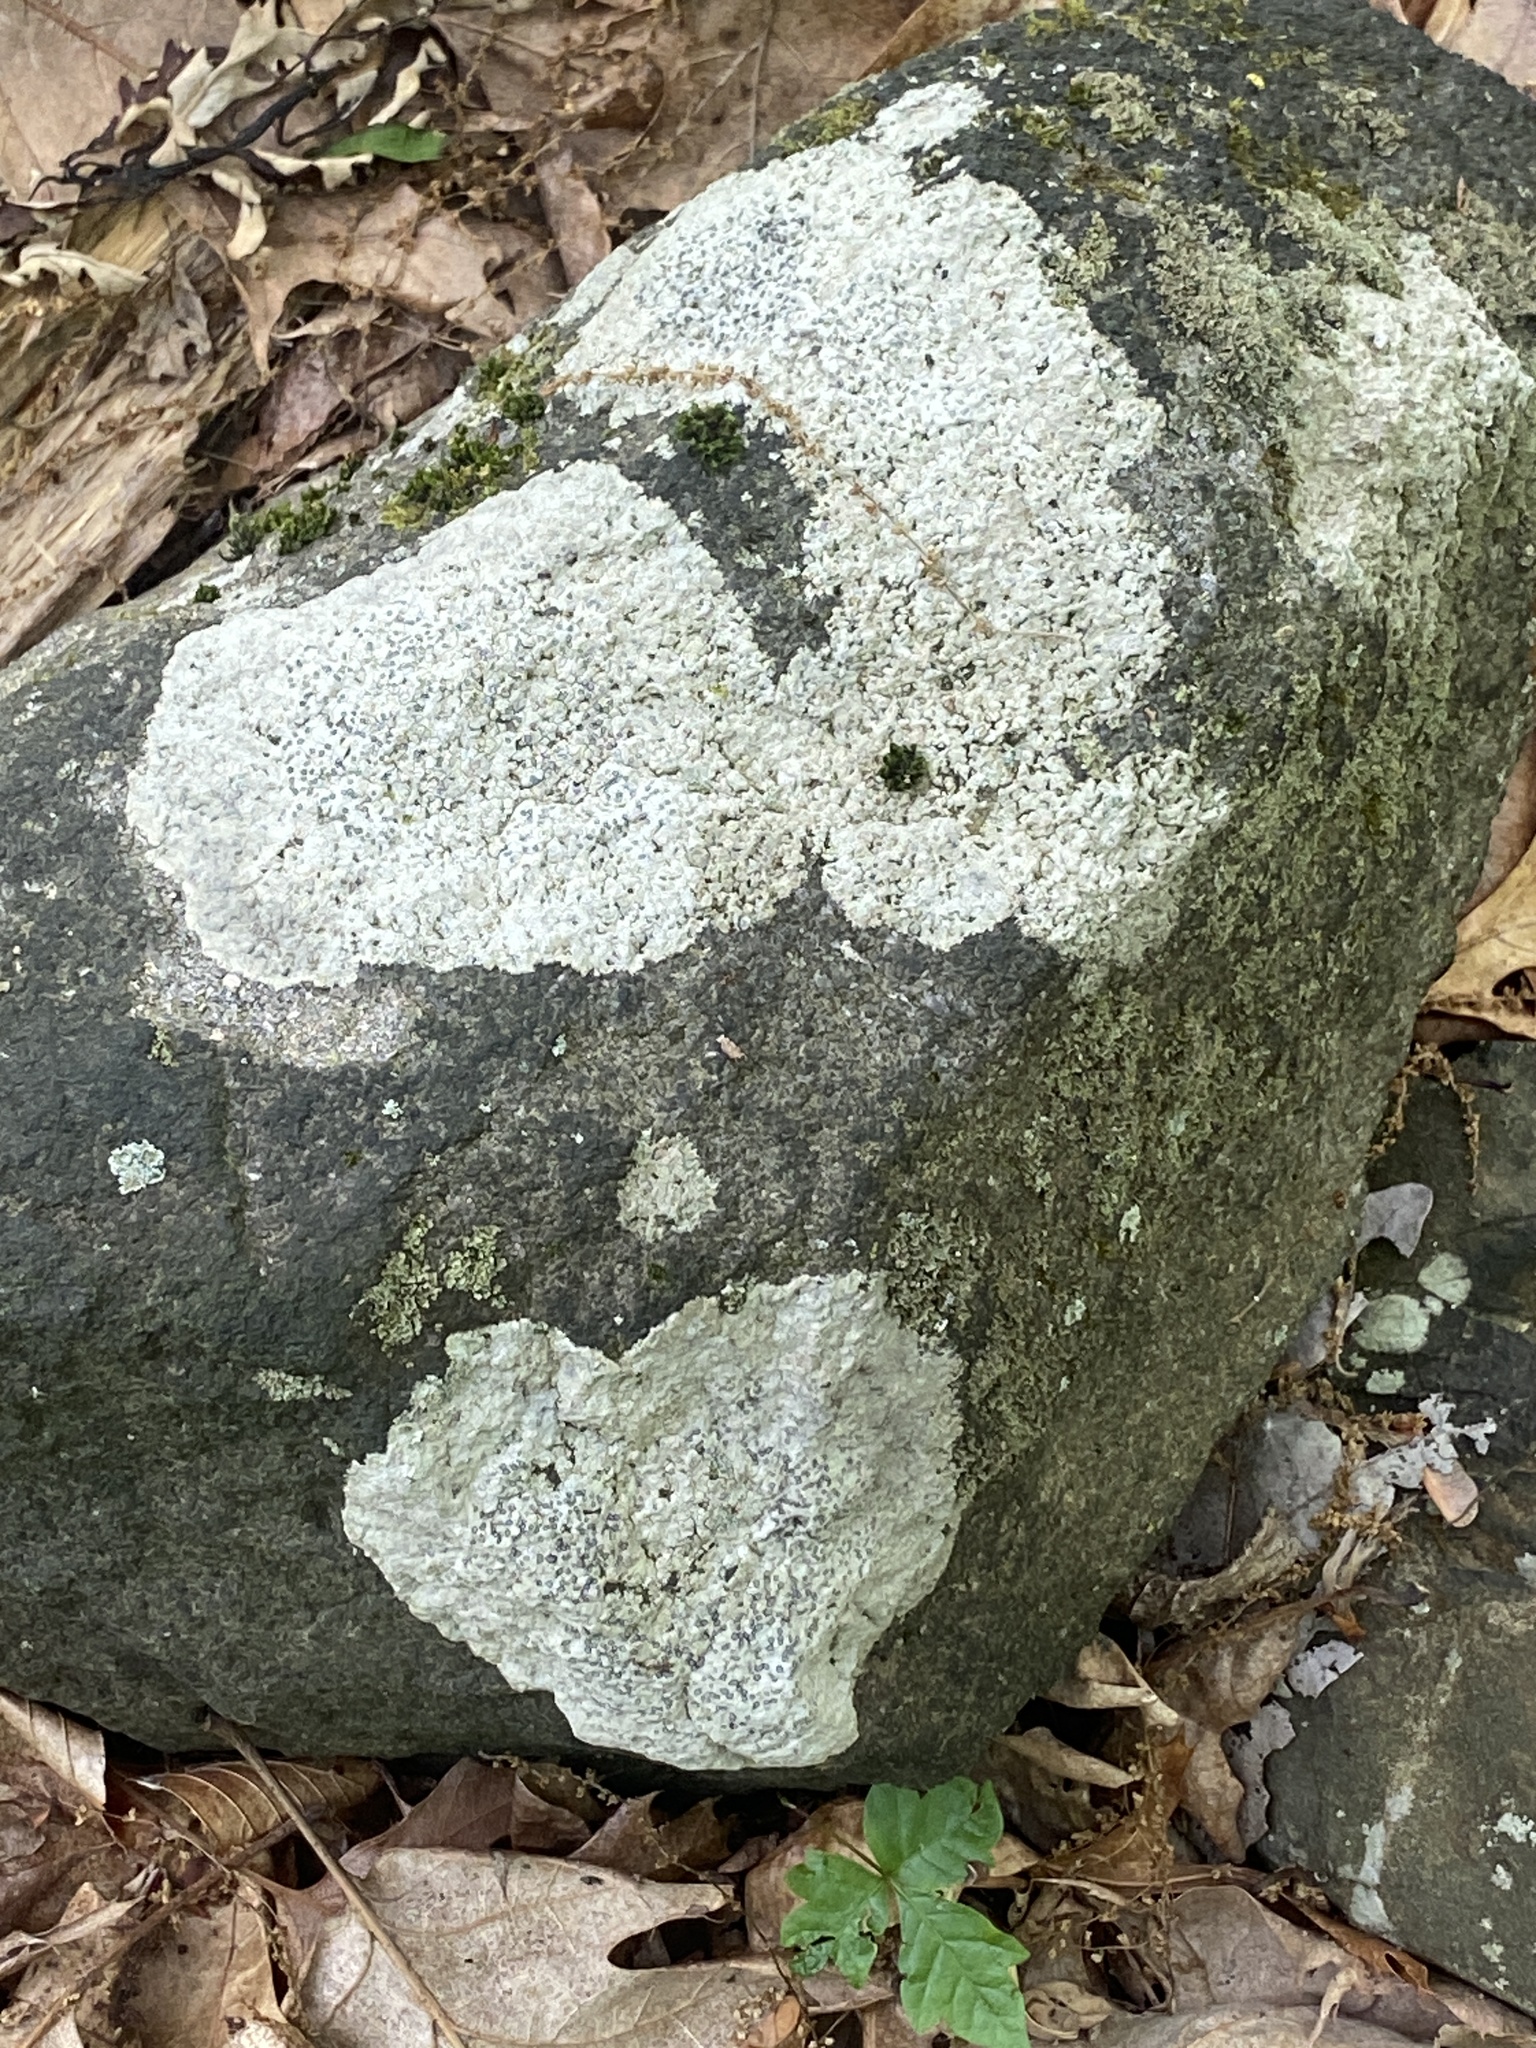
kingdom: Fungi
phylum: Ascomycota
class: Lecanoromycetes
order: Lecideales
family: Lecideaceae
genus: Porpidia
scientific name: Porpidia albocaerulescens
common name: Smokey-eyed boulder lichen
